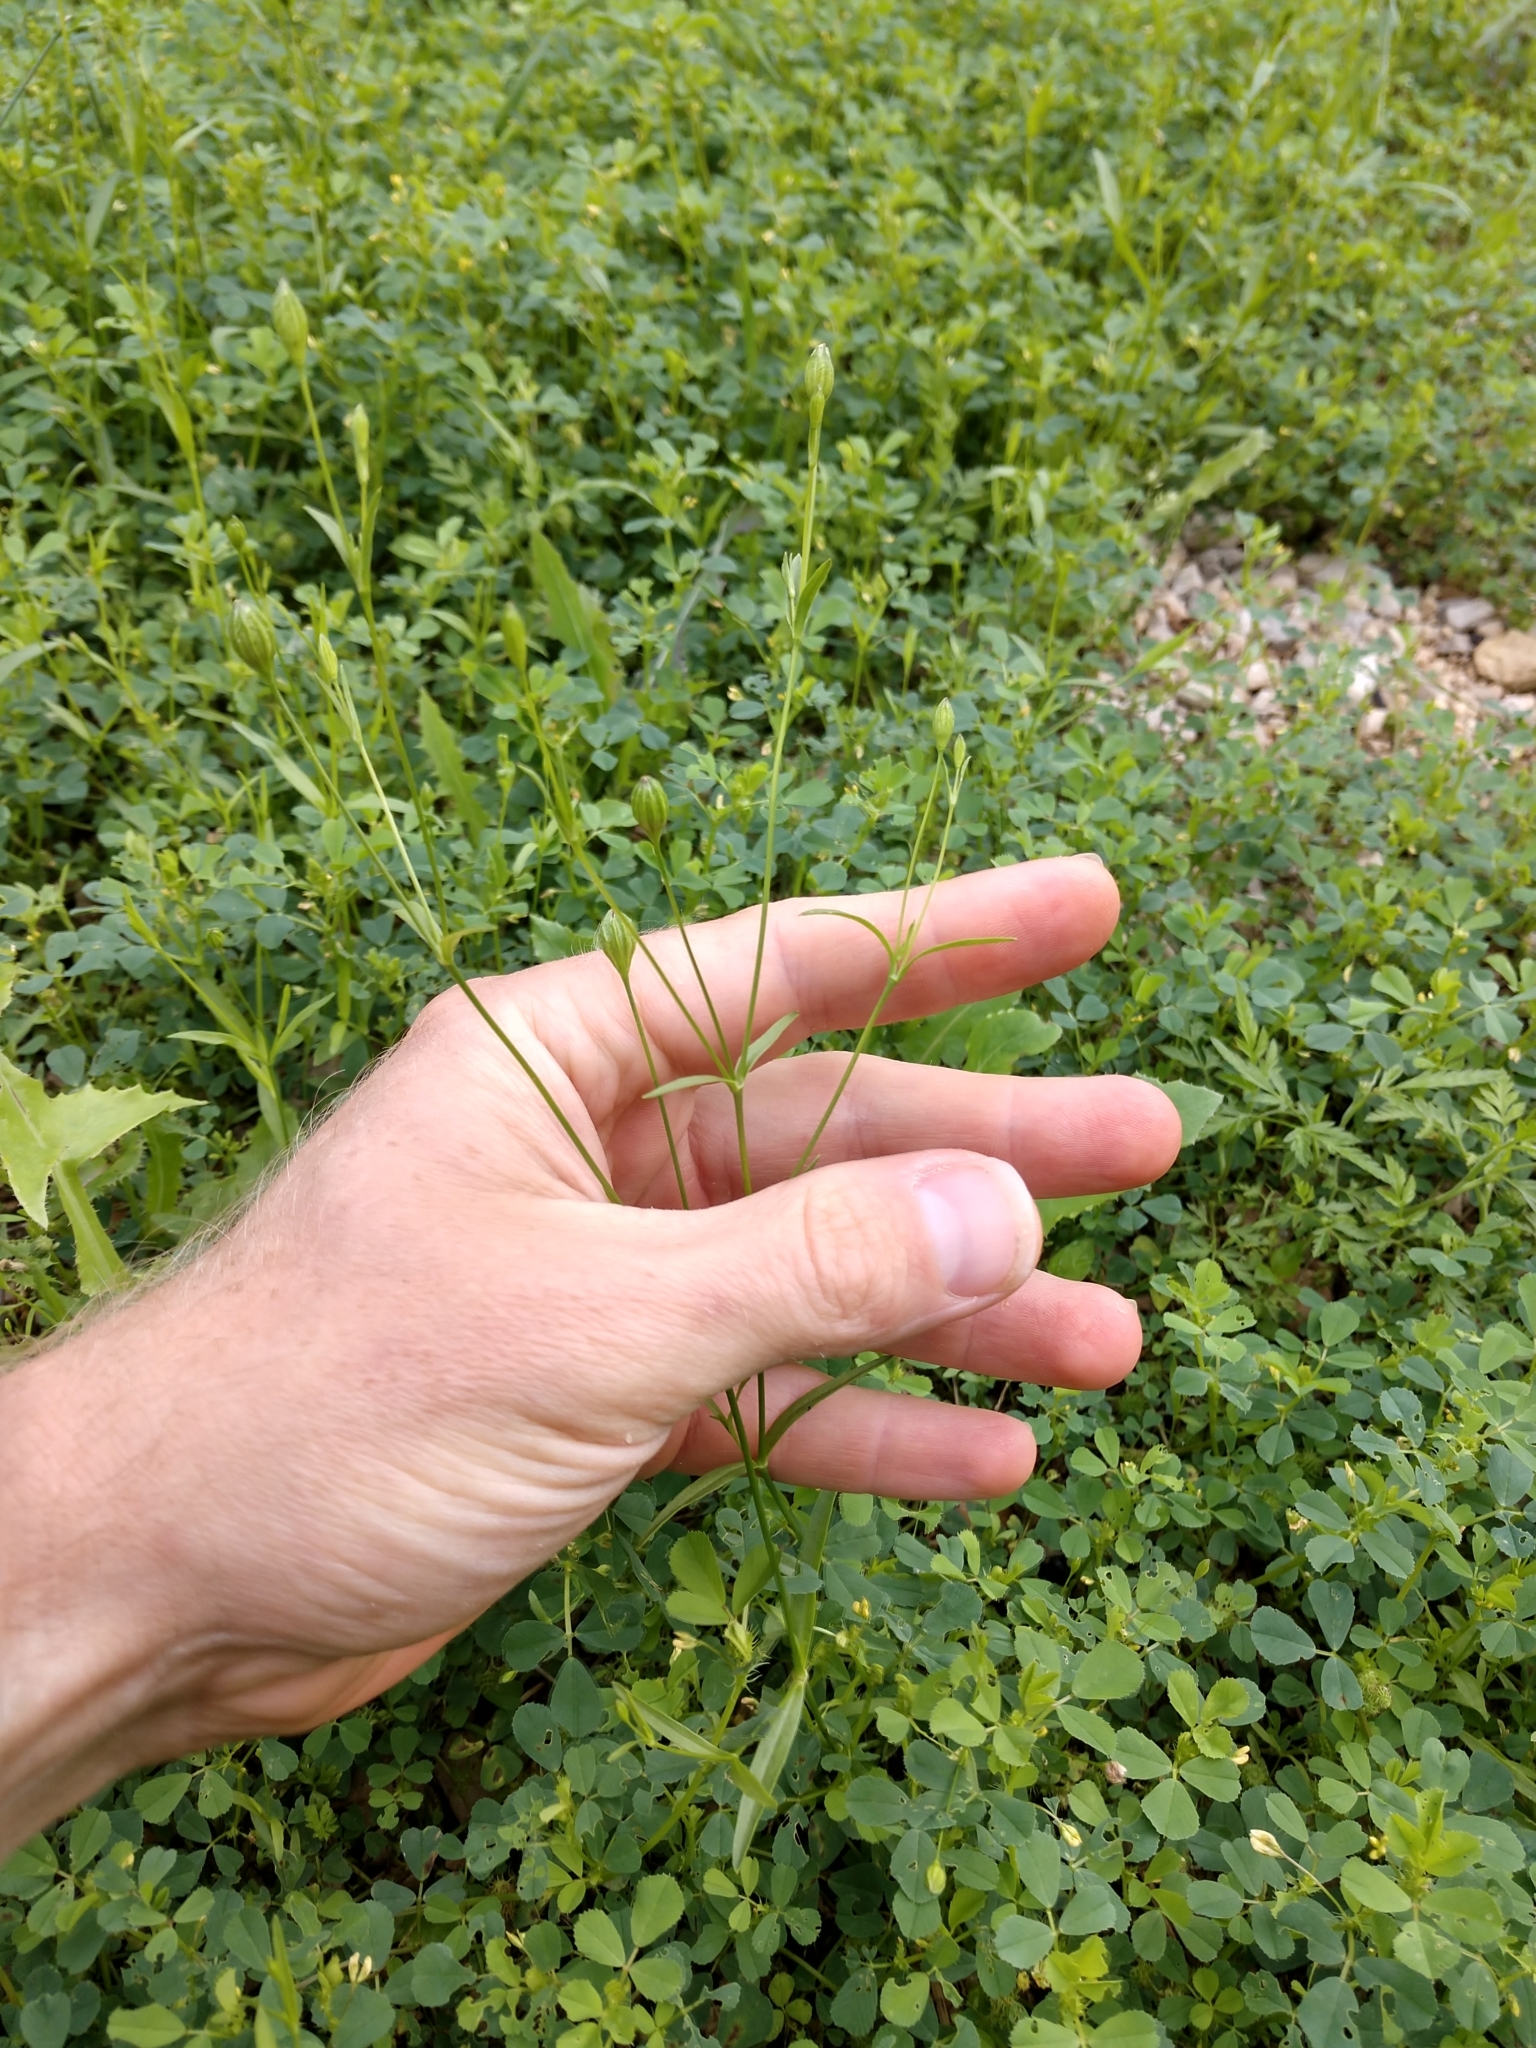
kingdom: Plantae
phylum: Tracheophyta
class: Magnoliopsida
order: Caryophyllales
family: Caryophyllaceae
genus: Silene
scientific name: Silene antirrhina
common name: Sleepy catchfly
